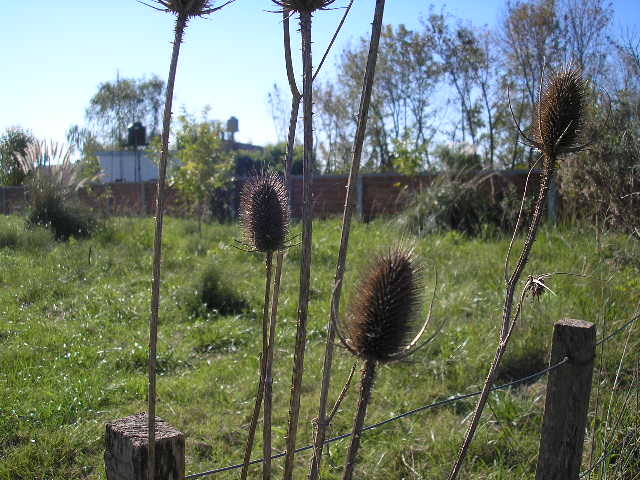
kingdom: Plantae
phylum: Tracheophyta
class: Magnoliopsida
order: Dipsacales
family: Caprifoliaceae
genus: Dipsacus
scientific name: Dipsacus fullonum
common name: Teasel
